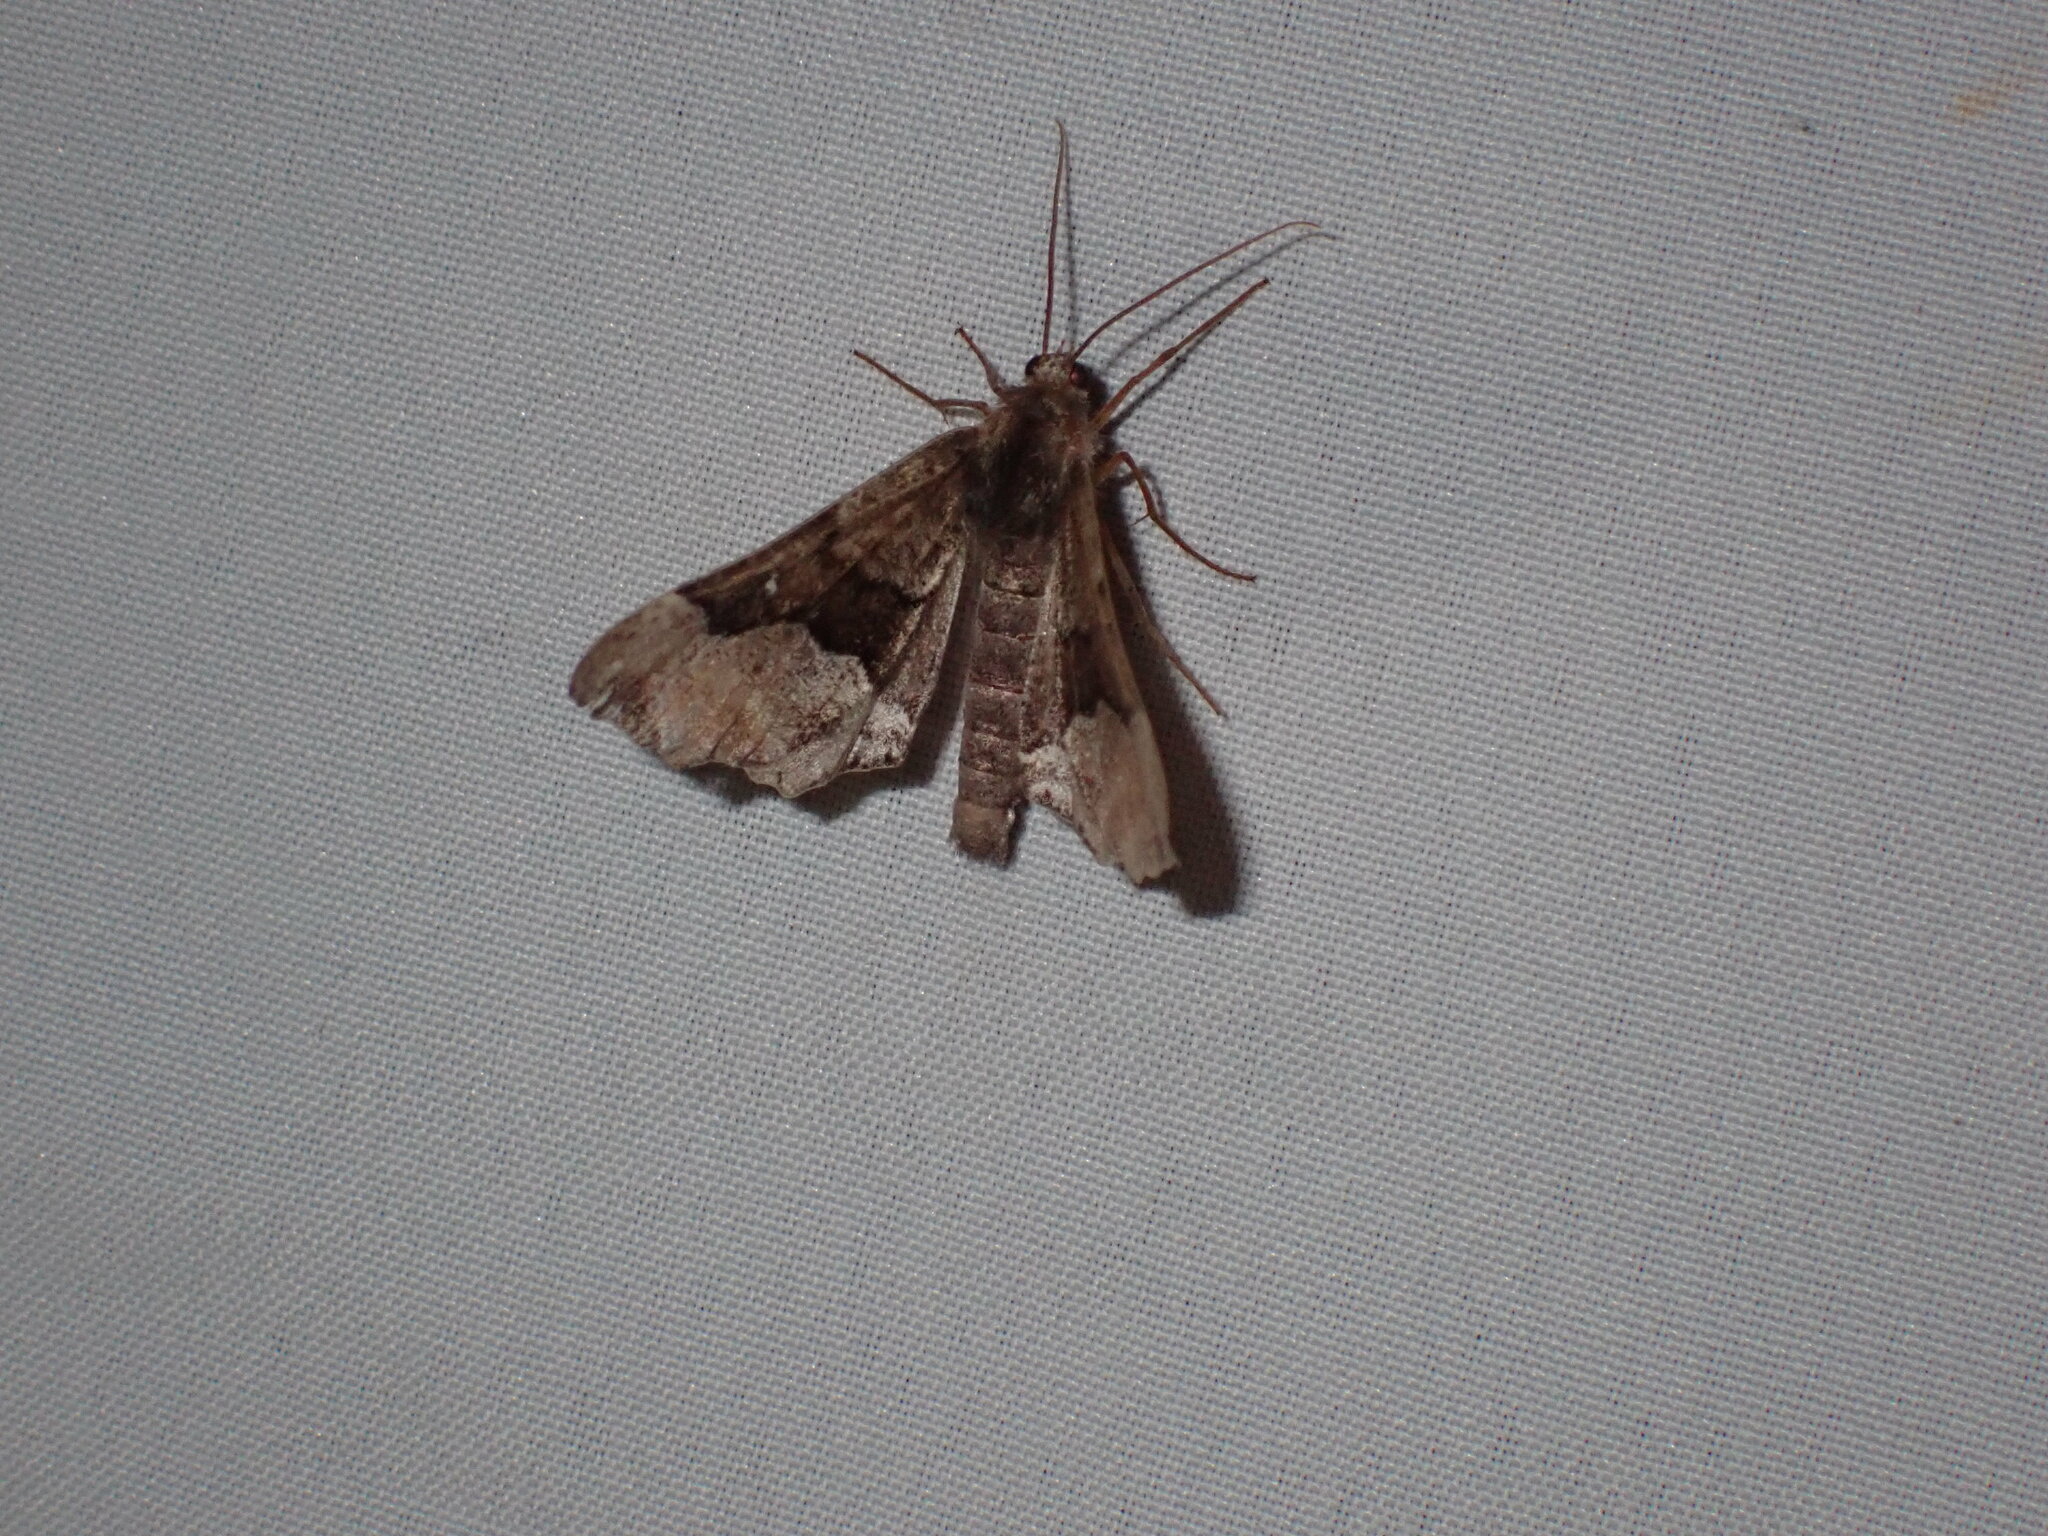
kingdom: Animalia
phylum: Arthropoda
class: Insecta
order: Lepidoptera
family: Geometridae
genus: Pero
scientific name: Pero behrensaria
